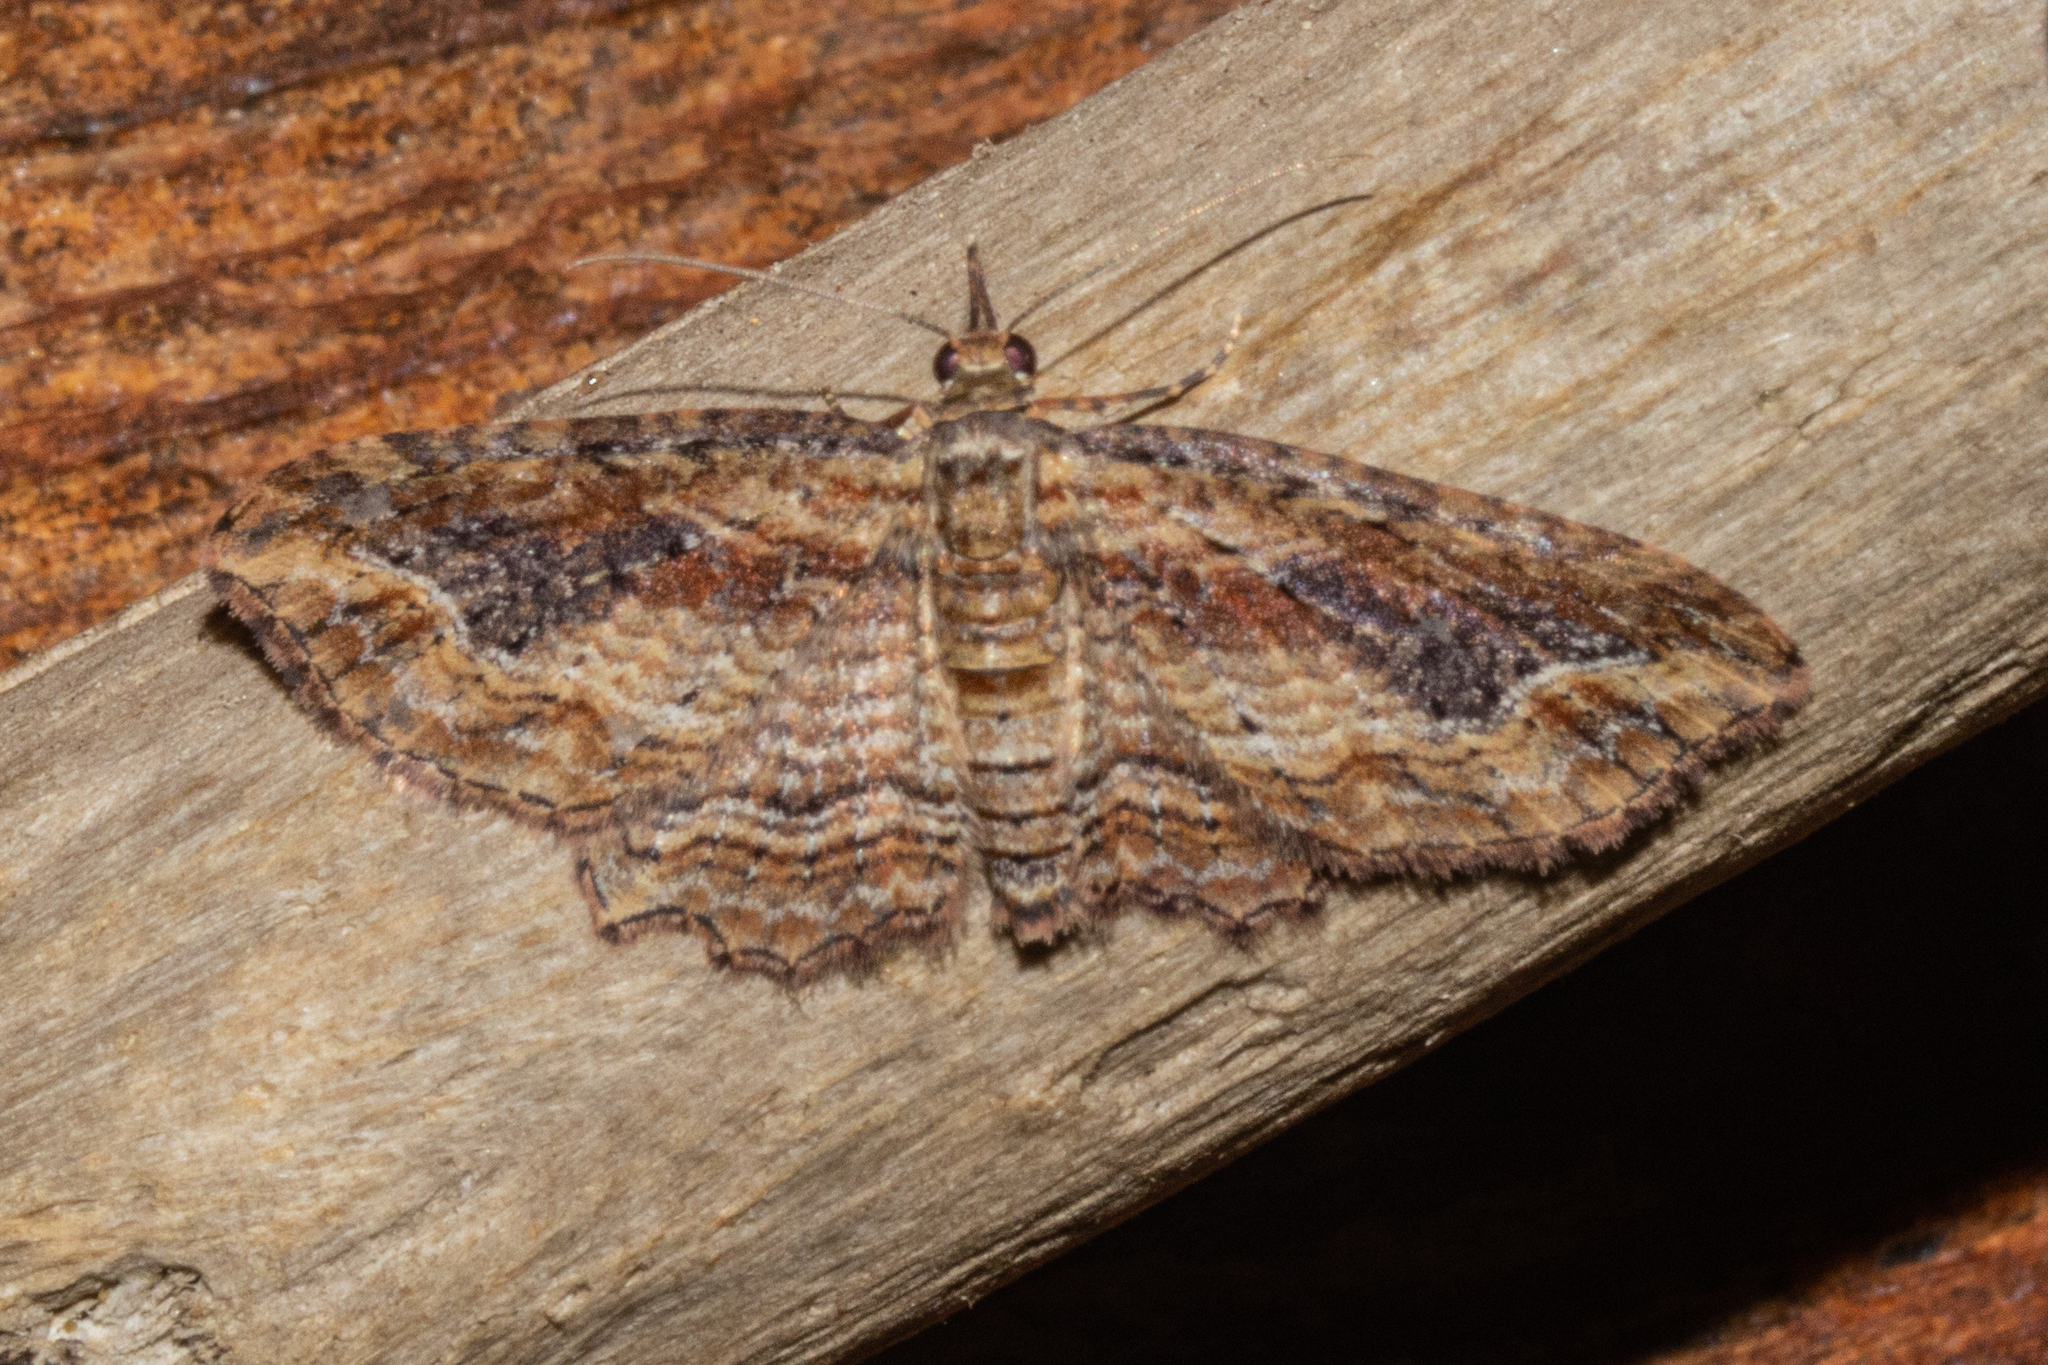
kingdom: Animalia
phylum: Arthropoda
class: Insecta
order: Lepidoptera
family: Geometridae
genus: Chloroclystis
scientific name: Chloroclystis filata
